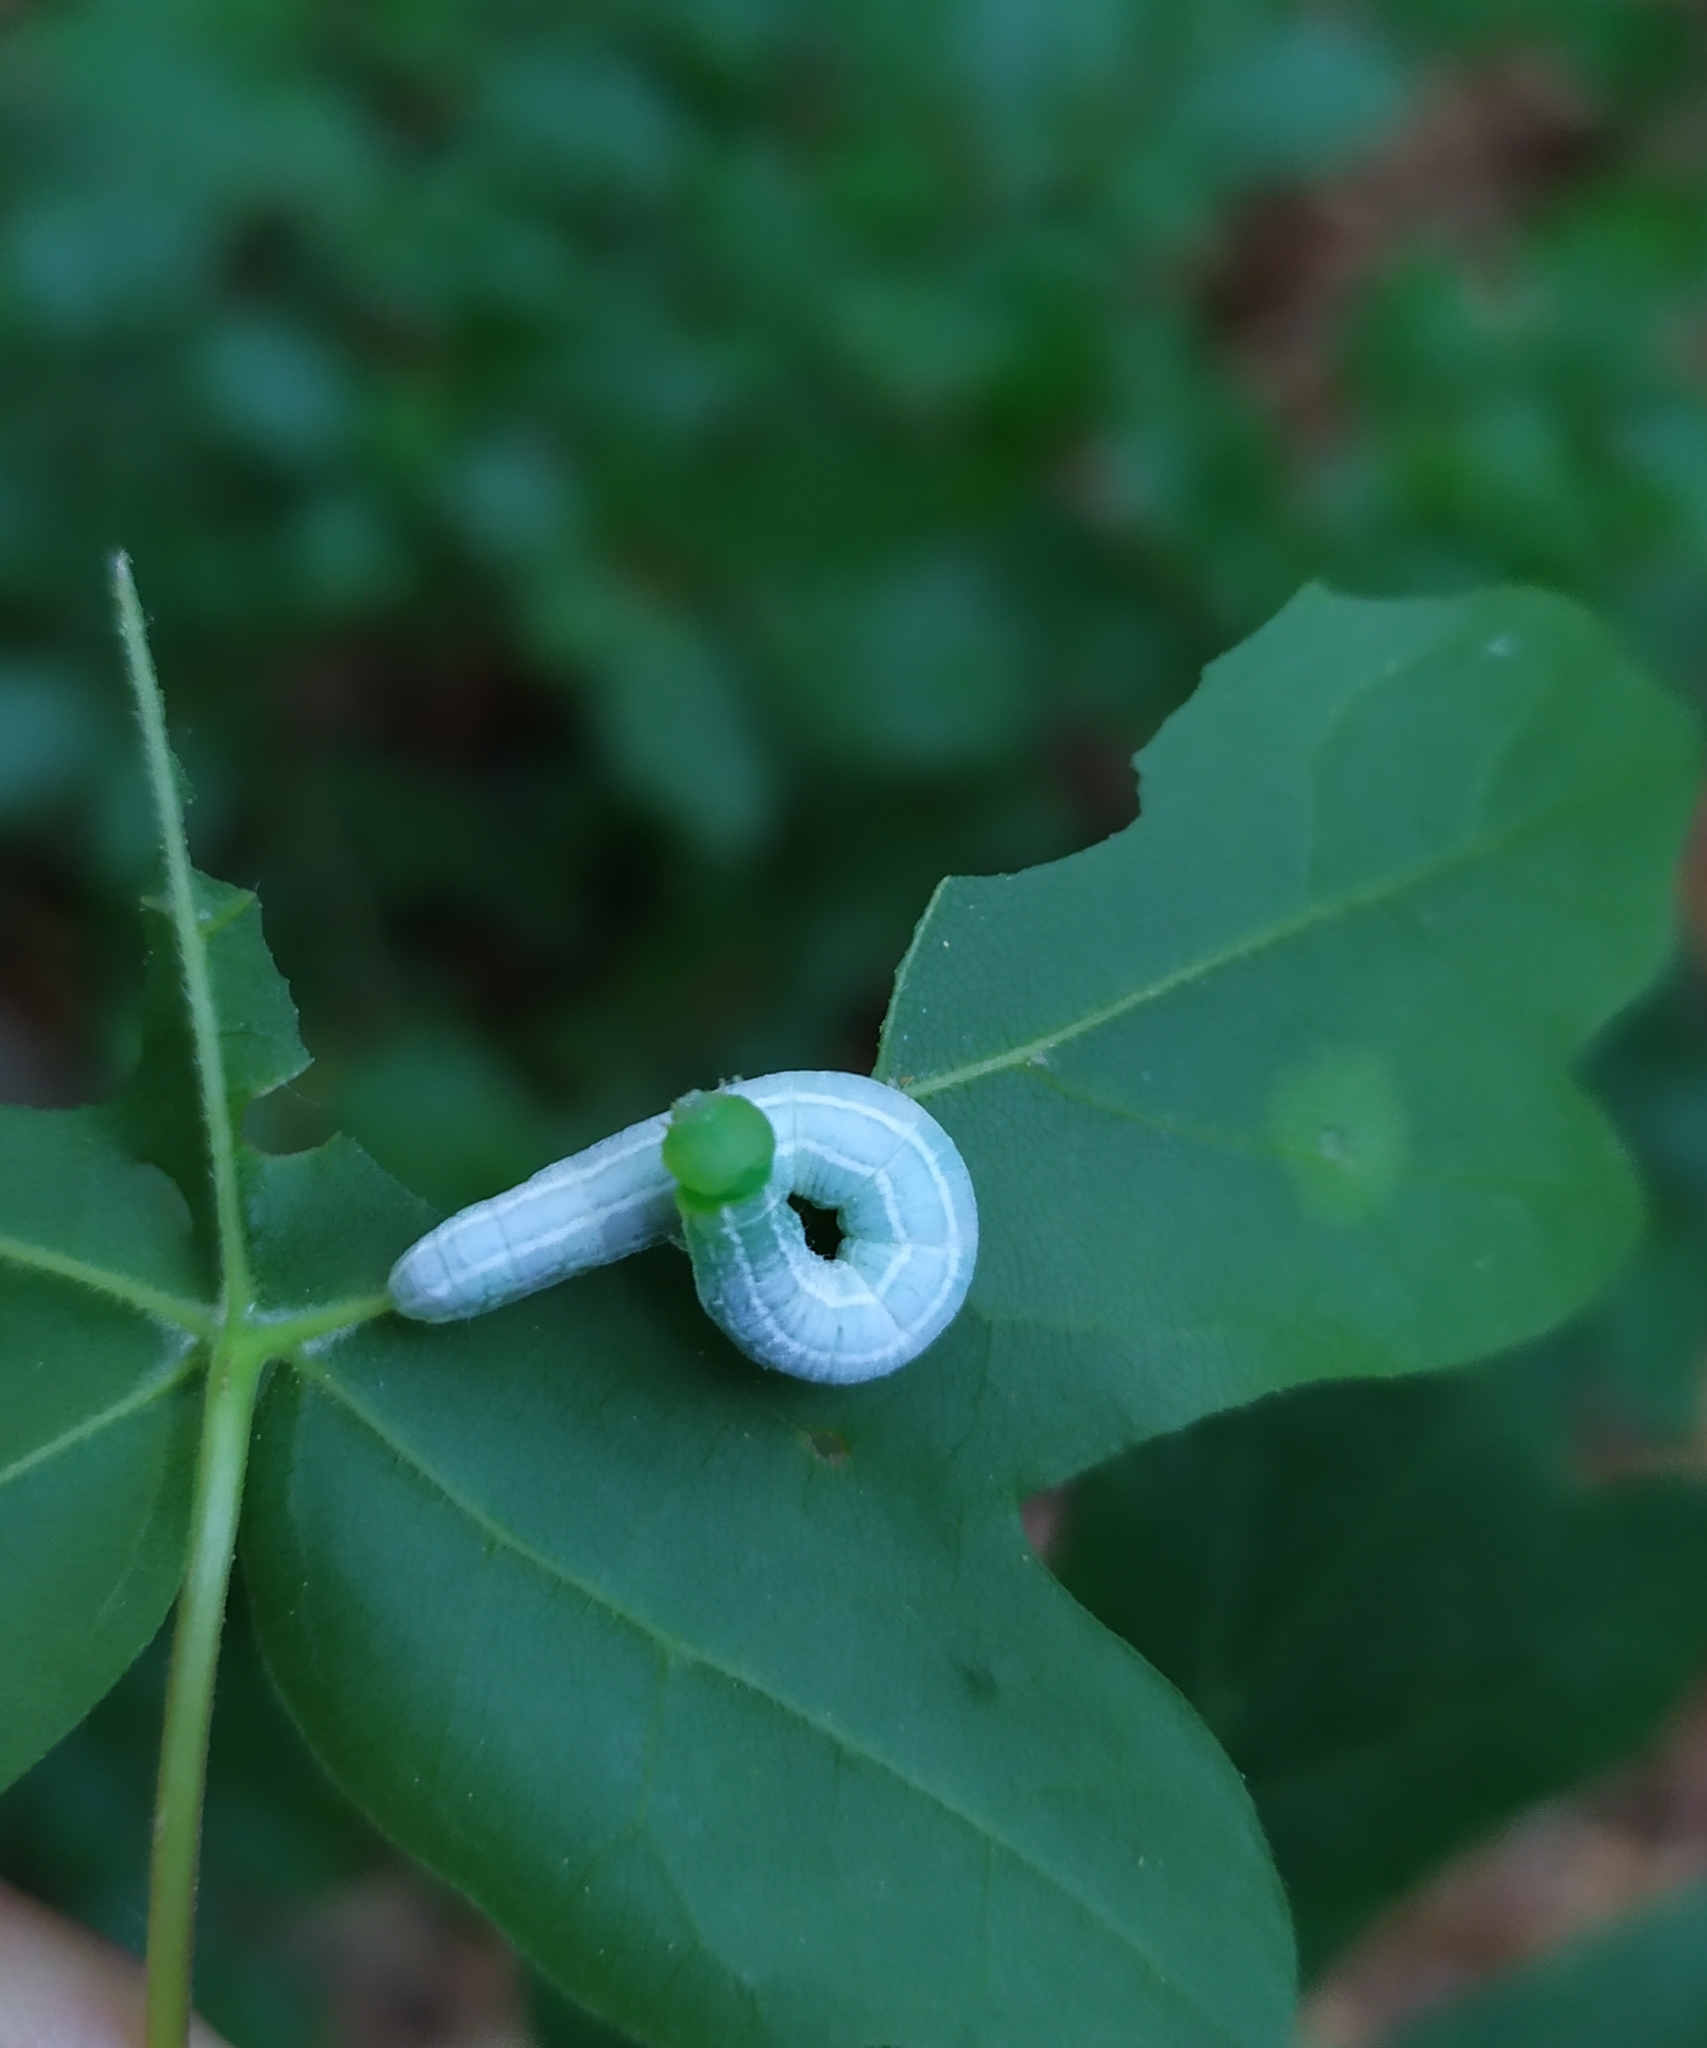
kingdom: Animalia
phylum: Arthropoda
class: Insecta
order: Lepidoptera
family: Notodontidae
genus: Ptilophora
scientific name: Ptilophora plumigera
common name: Plumed prominent
